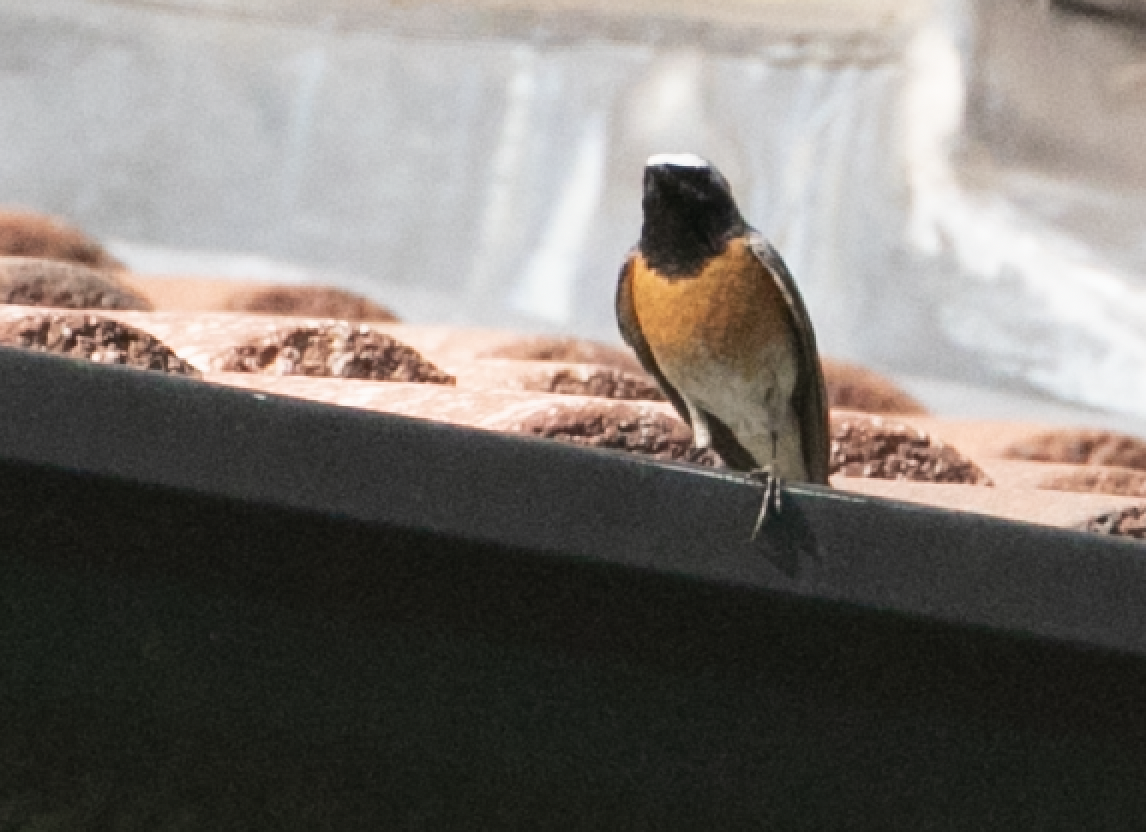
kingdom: Animalia
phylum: Chordata
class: Aves
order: Passeriformes
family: Muscicapidae
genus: Phoenicurus
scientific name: Phoenicurus phoenicurus
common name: Common redstart
